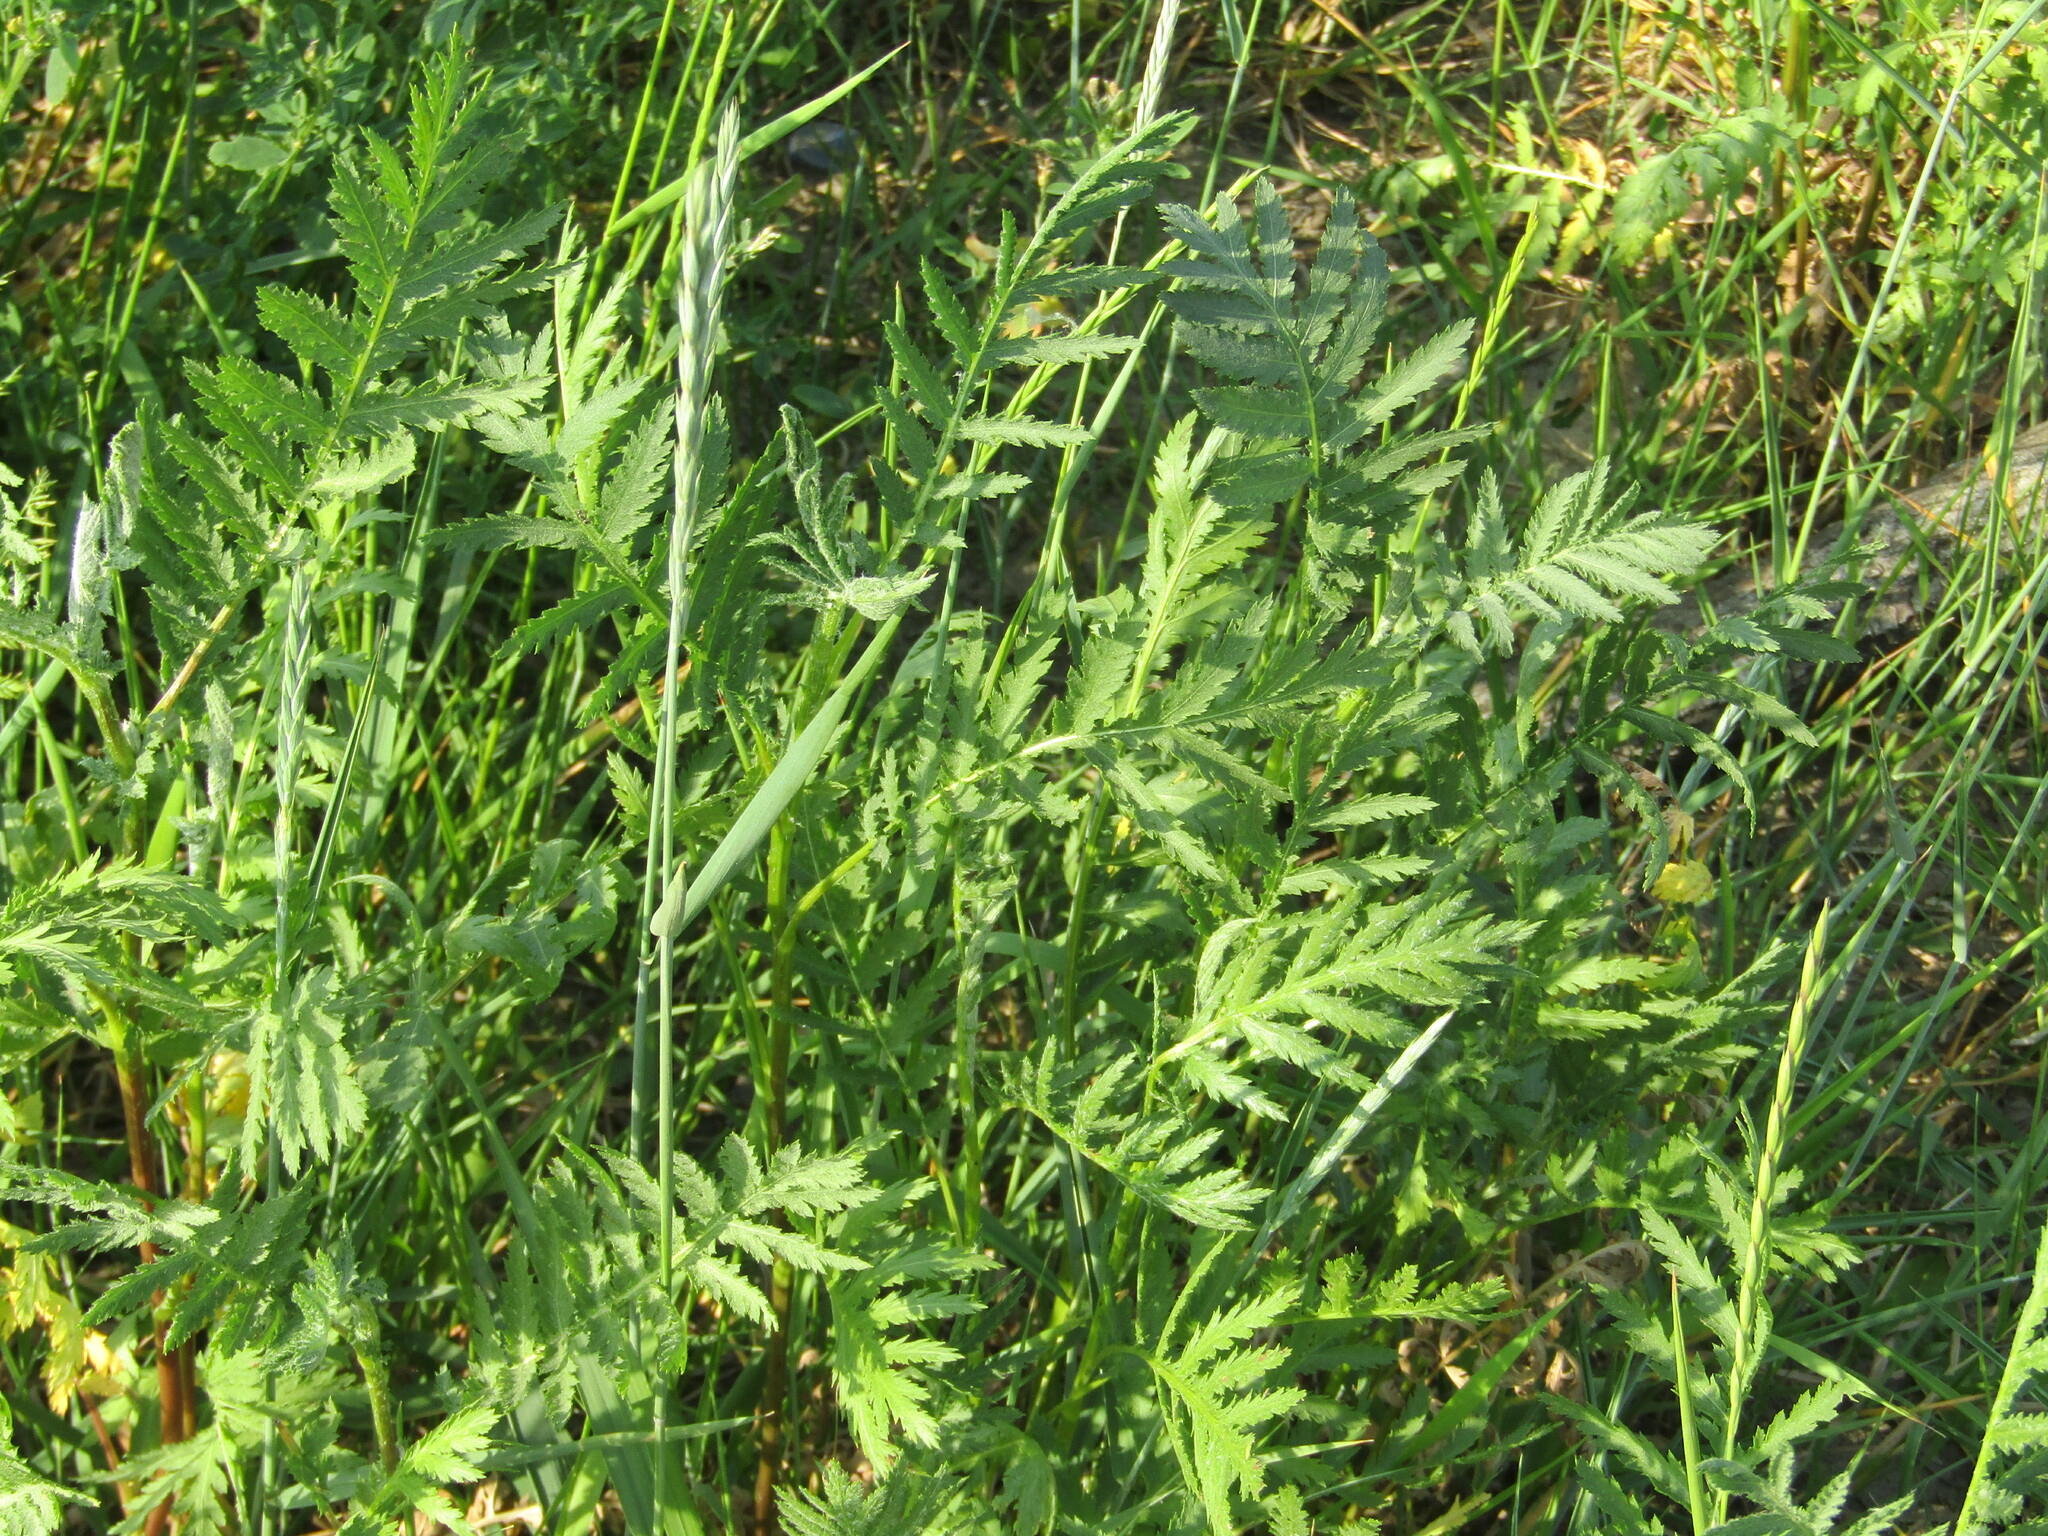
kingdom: Plantae
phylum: Tracheophyta
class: Magnoliopsida
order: Asterales
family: Asteraceae
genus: Tanacetum
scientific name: Tanacetum vulgare
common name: Common tansy
